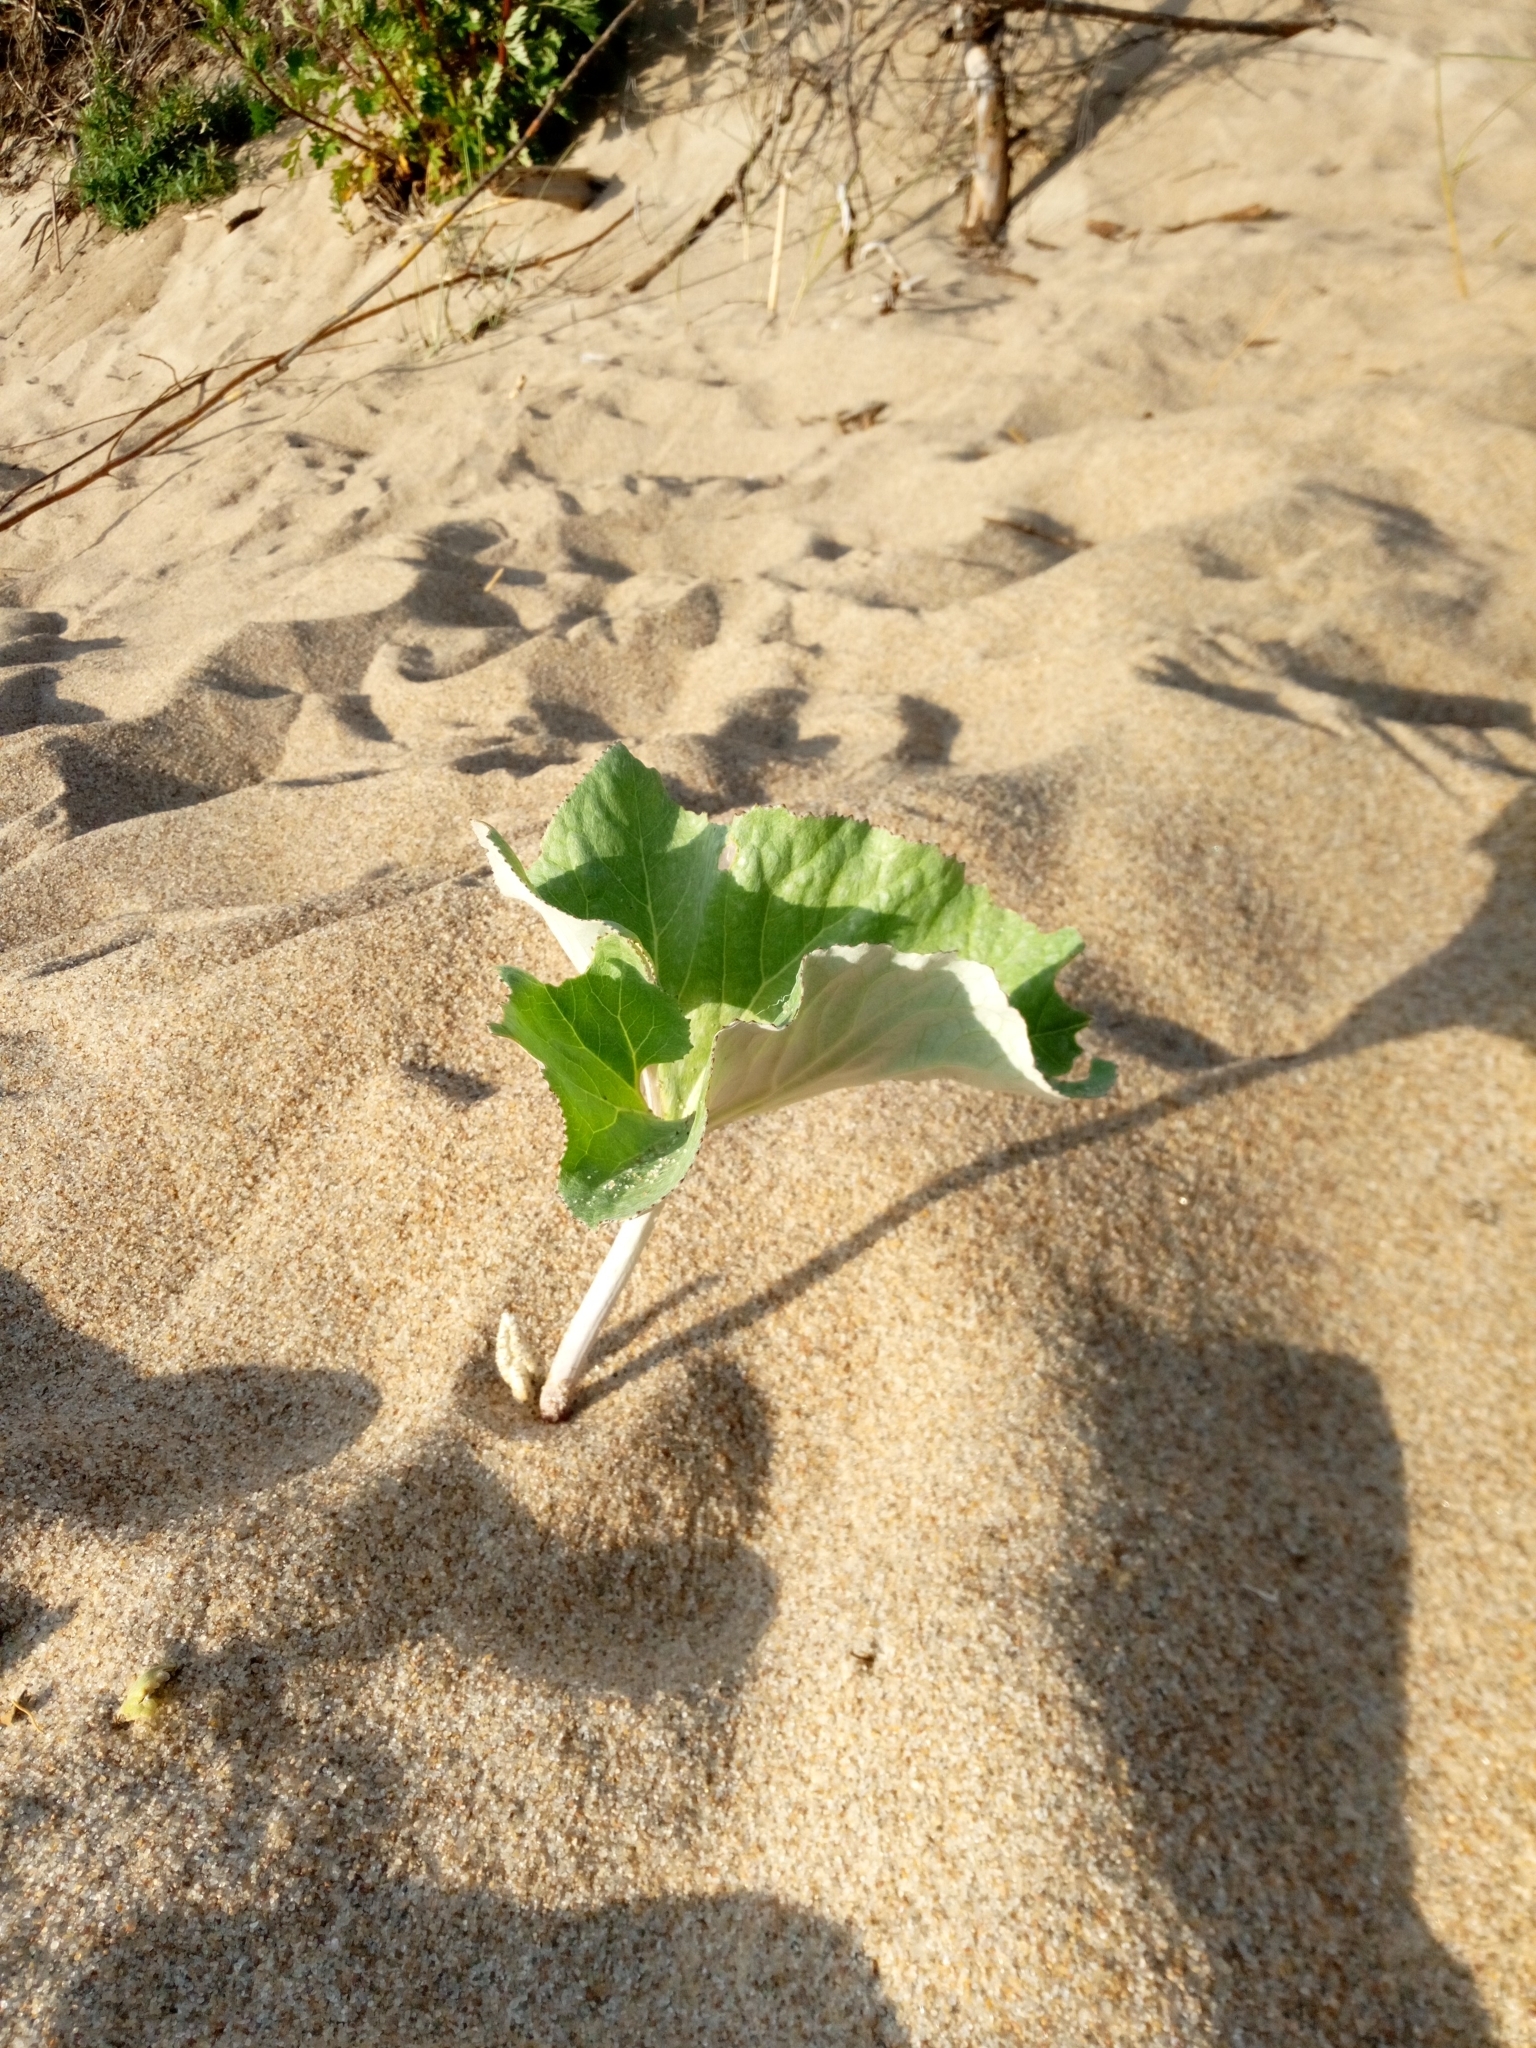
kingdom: Plantae
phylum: Tracheophyta
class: Magnoliopsida
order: Asterales
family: Asteraceae
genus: Petasites
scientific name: Petasites spurius
